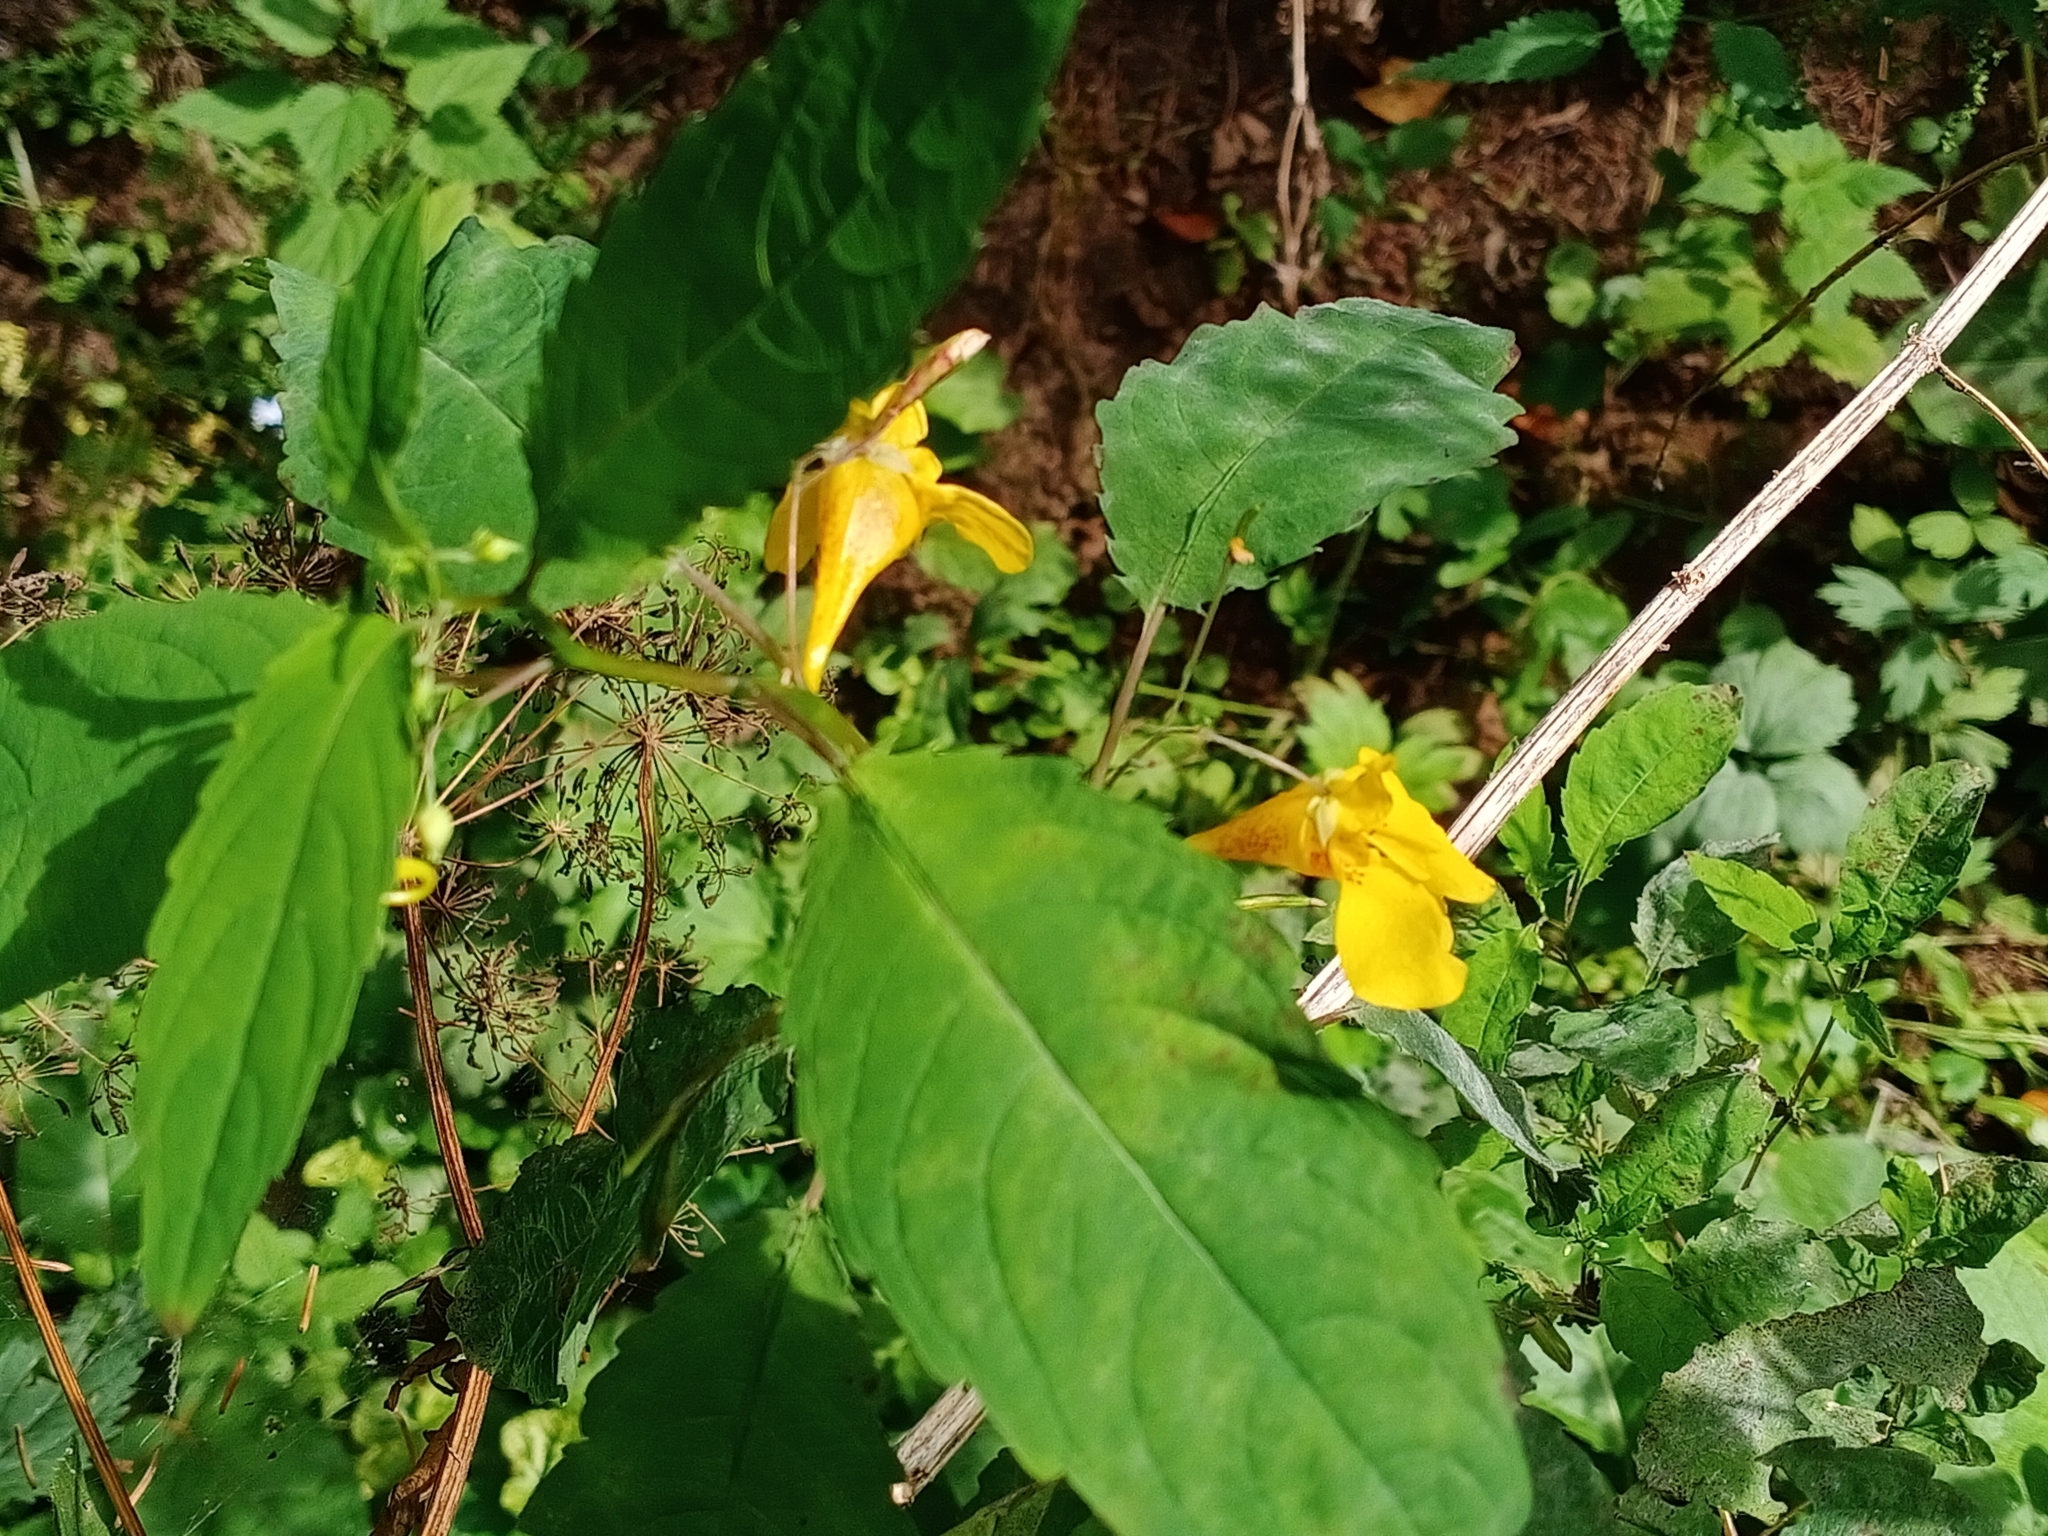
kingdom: Plantae
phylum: Tracheophyta
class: Magnoliopsida
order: Ericales
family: Balsaminaceae
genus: Impatiens
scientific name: Impatiens noli-tangere
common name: Touch-me-not balsam
